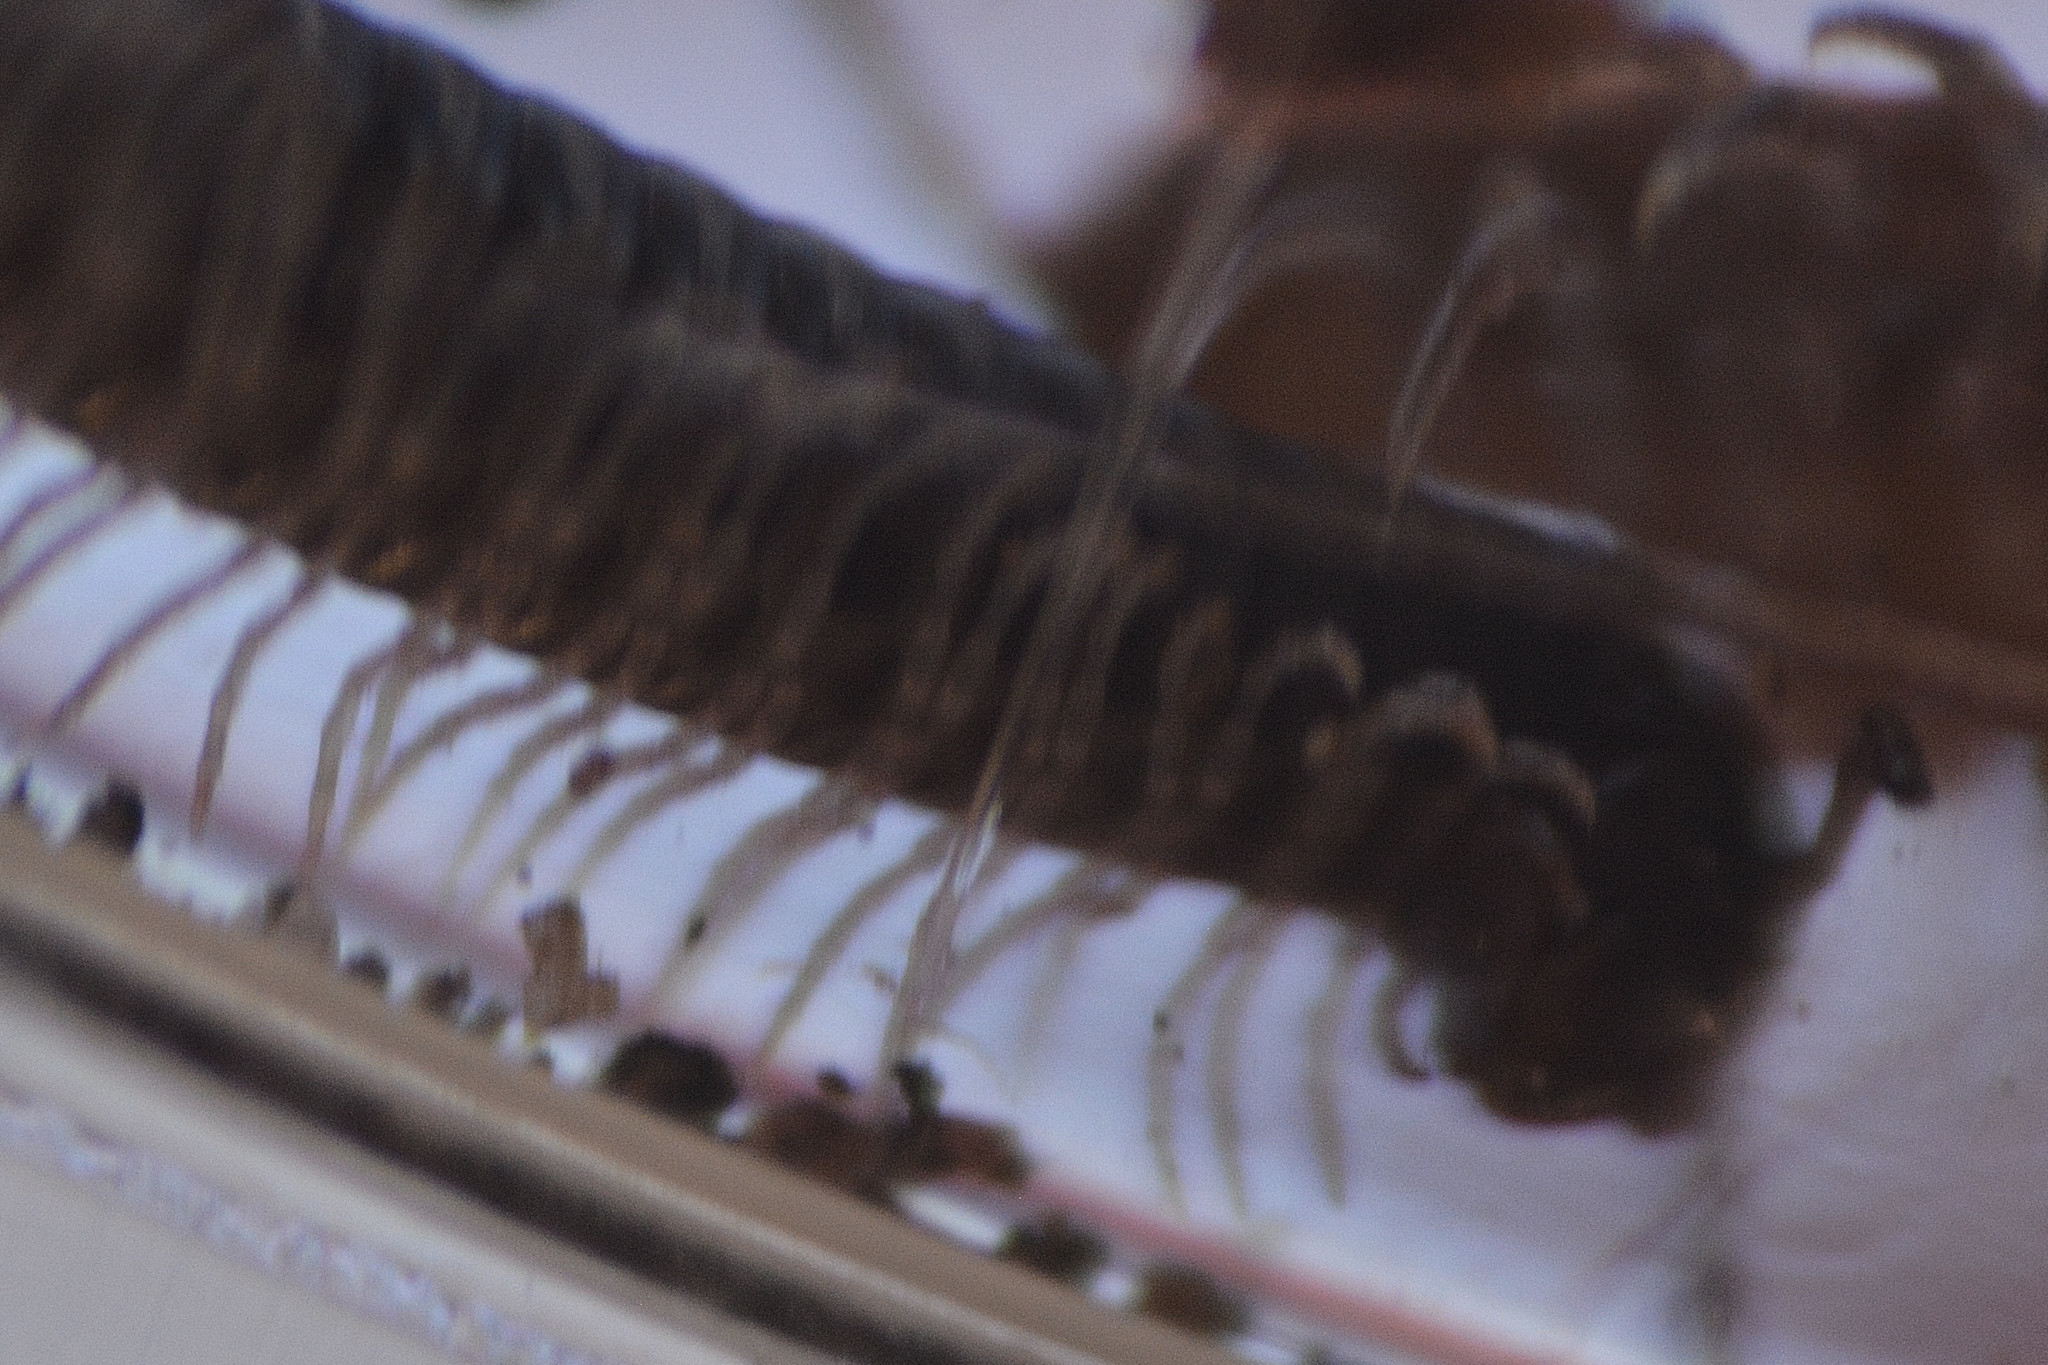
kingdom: Animalia
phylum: Arthropoda
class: Diplopoda
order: Julida
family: Julidae
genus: Tachypodoiulus
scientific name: Tachypodoiulus niger
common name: White-legged snake millipede
